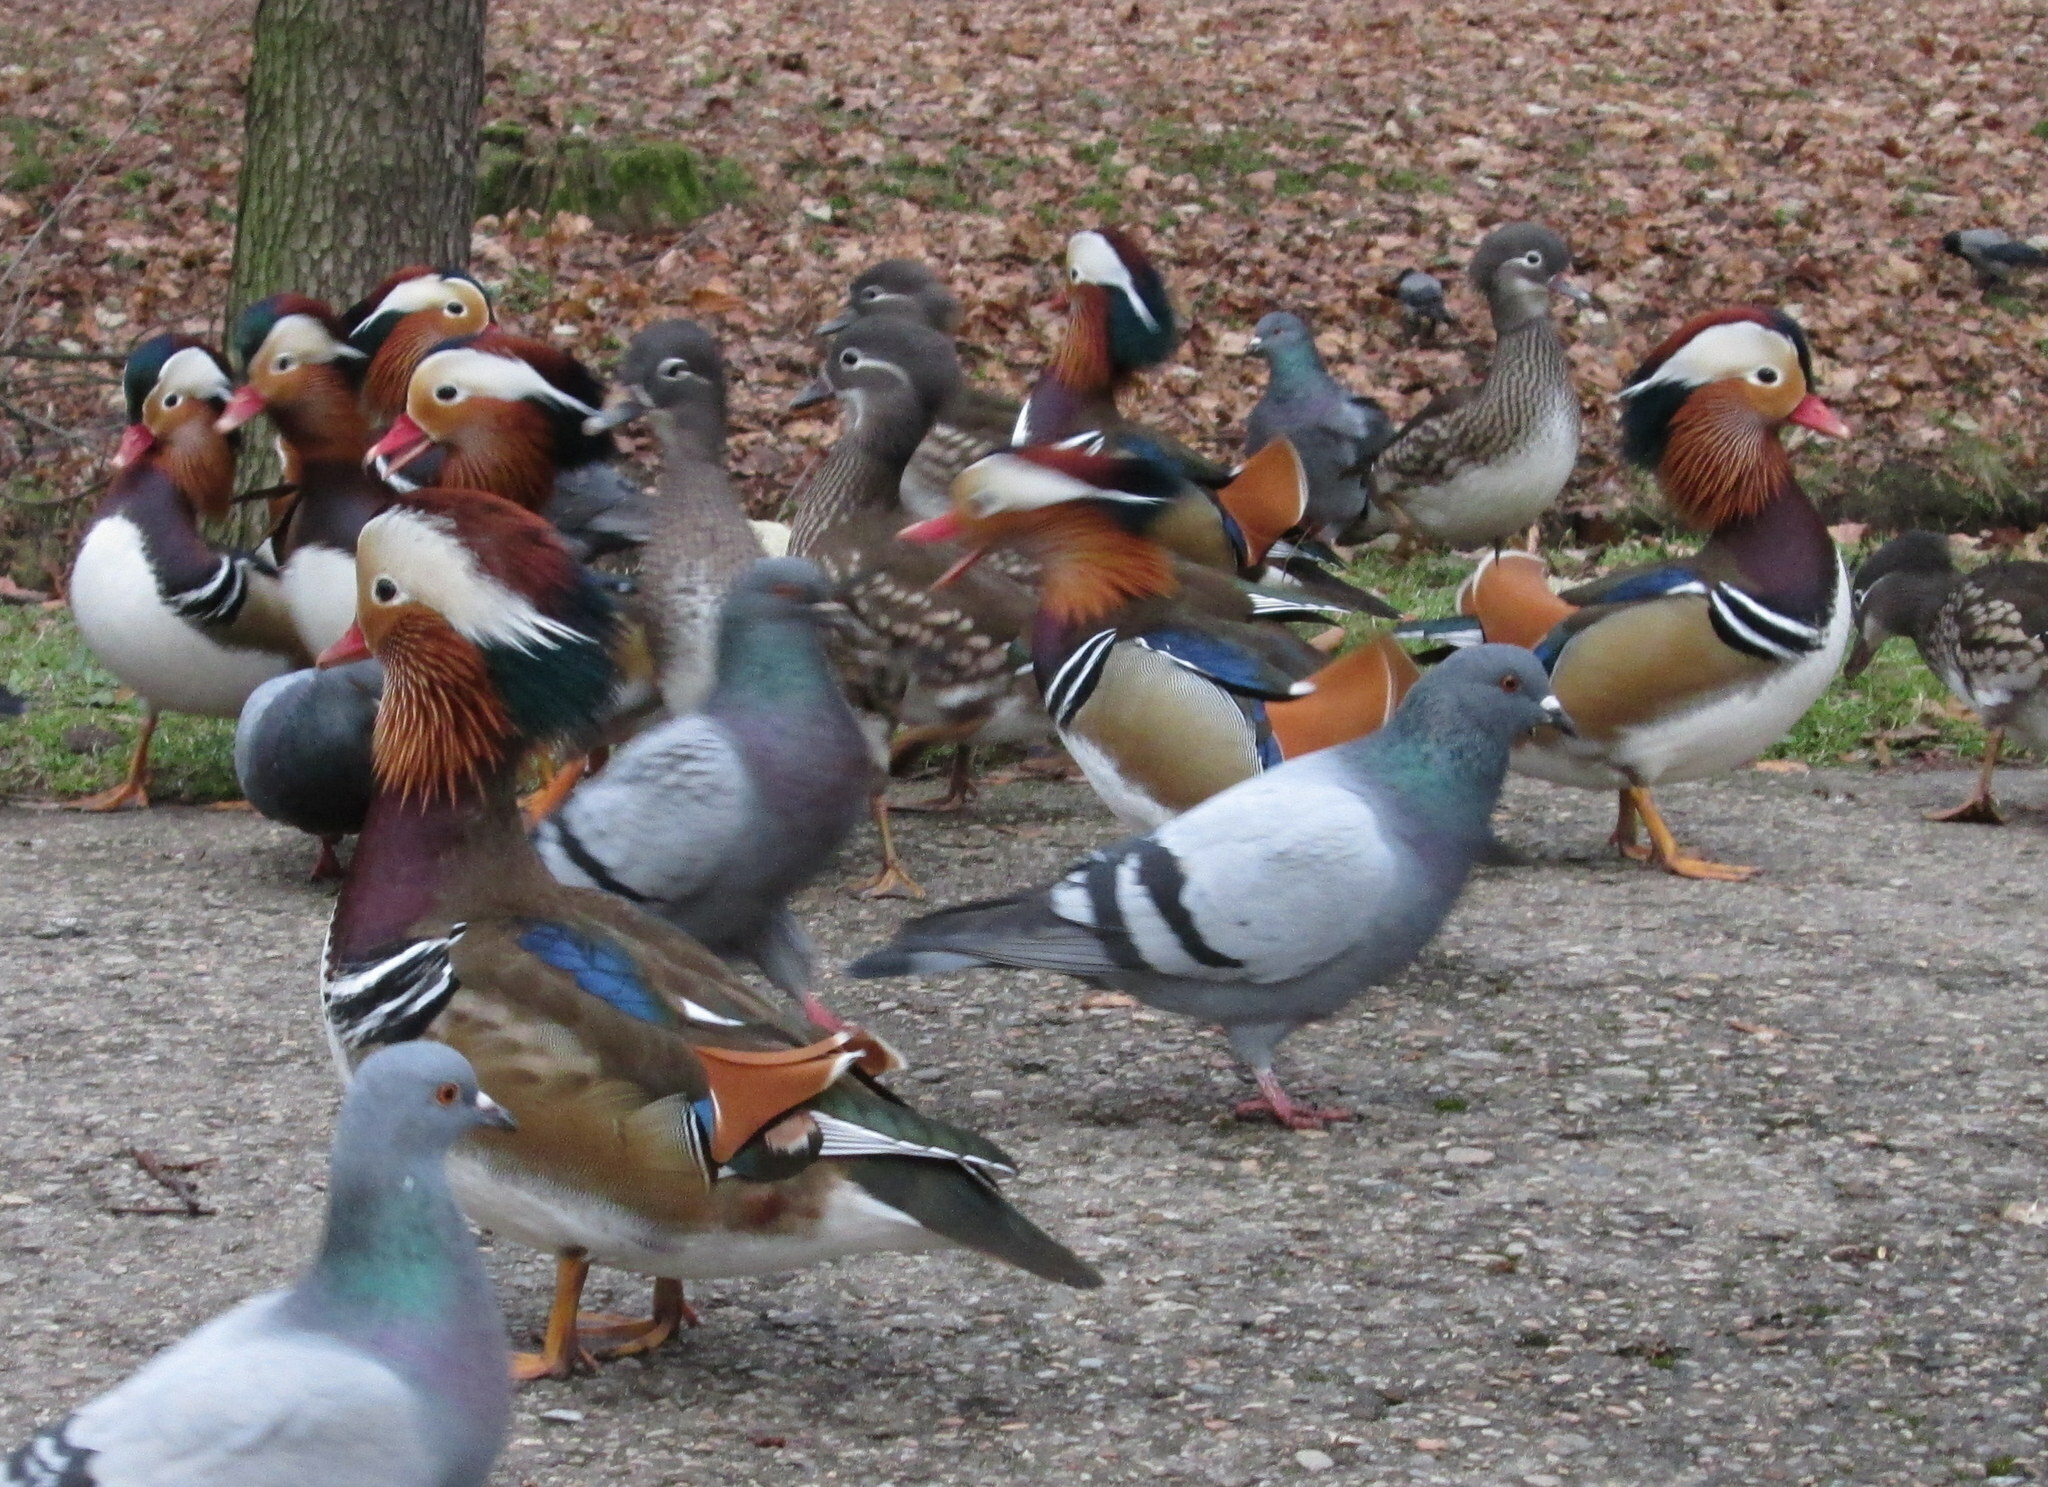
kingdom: Animalia
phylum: Chordata
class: Aves
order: Anseriformes
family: Anatidae
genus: Aix
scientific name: Aix galericulata
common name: Mandarin duck
